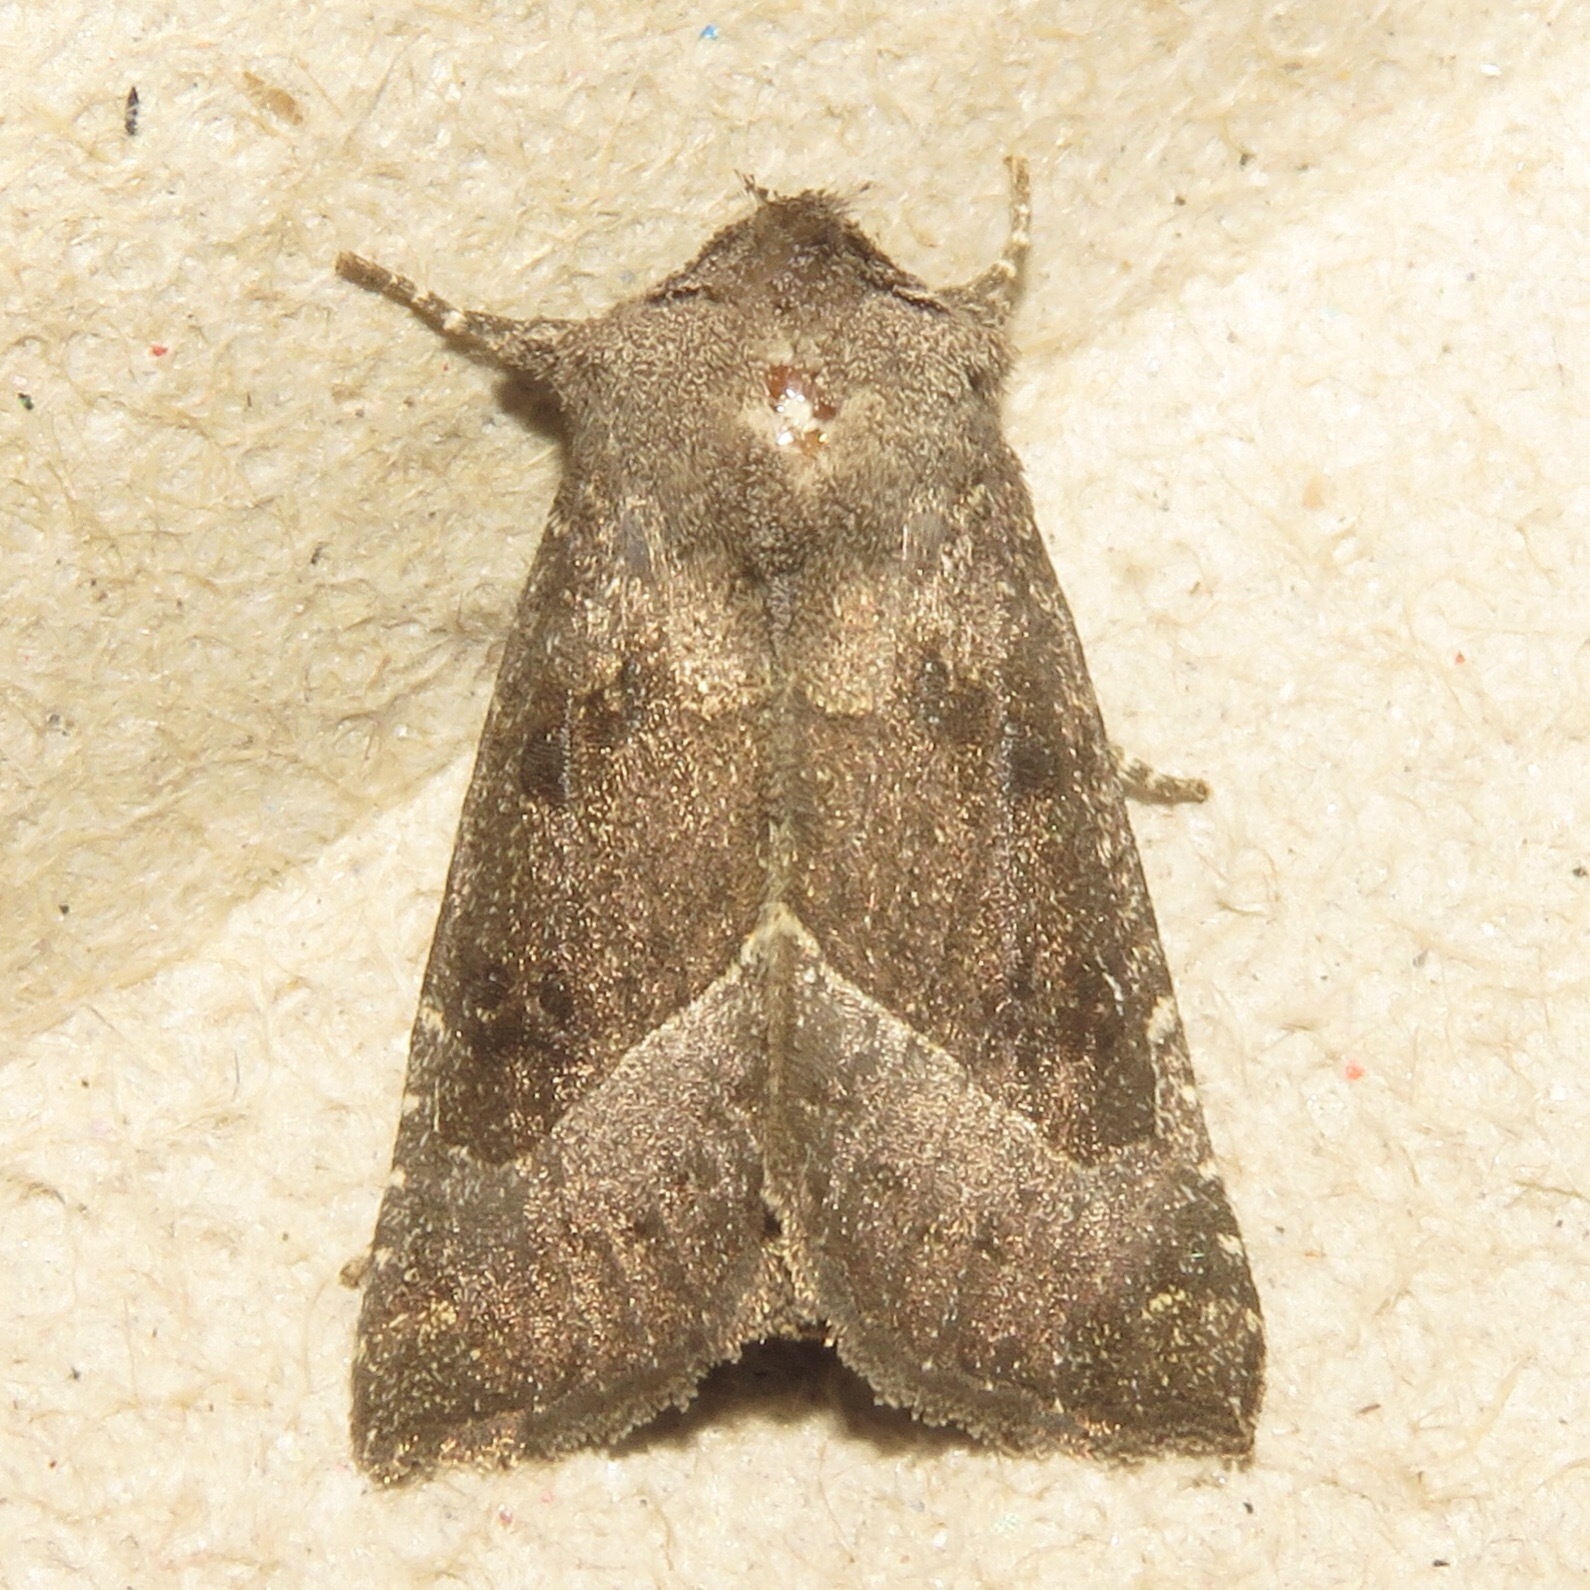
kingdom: Animalia
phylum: Arthropoda
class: Insecta
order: Lepidoptera
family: Noctuidae
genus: Papaipema
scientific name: Papaipema nebris
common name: Stalk borer
